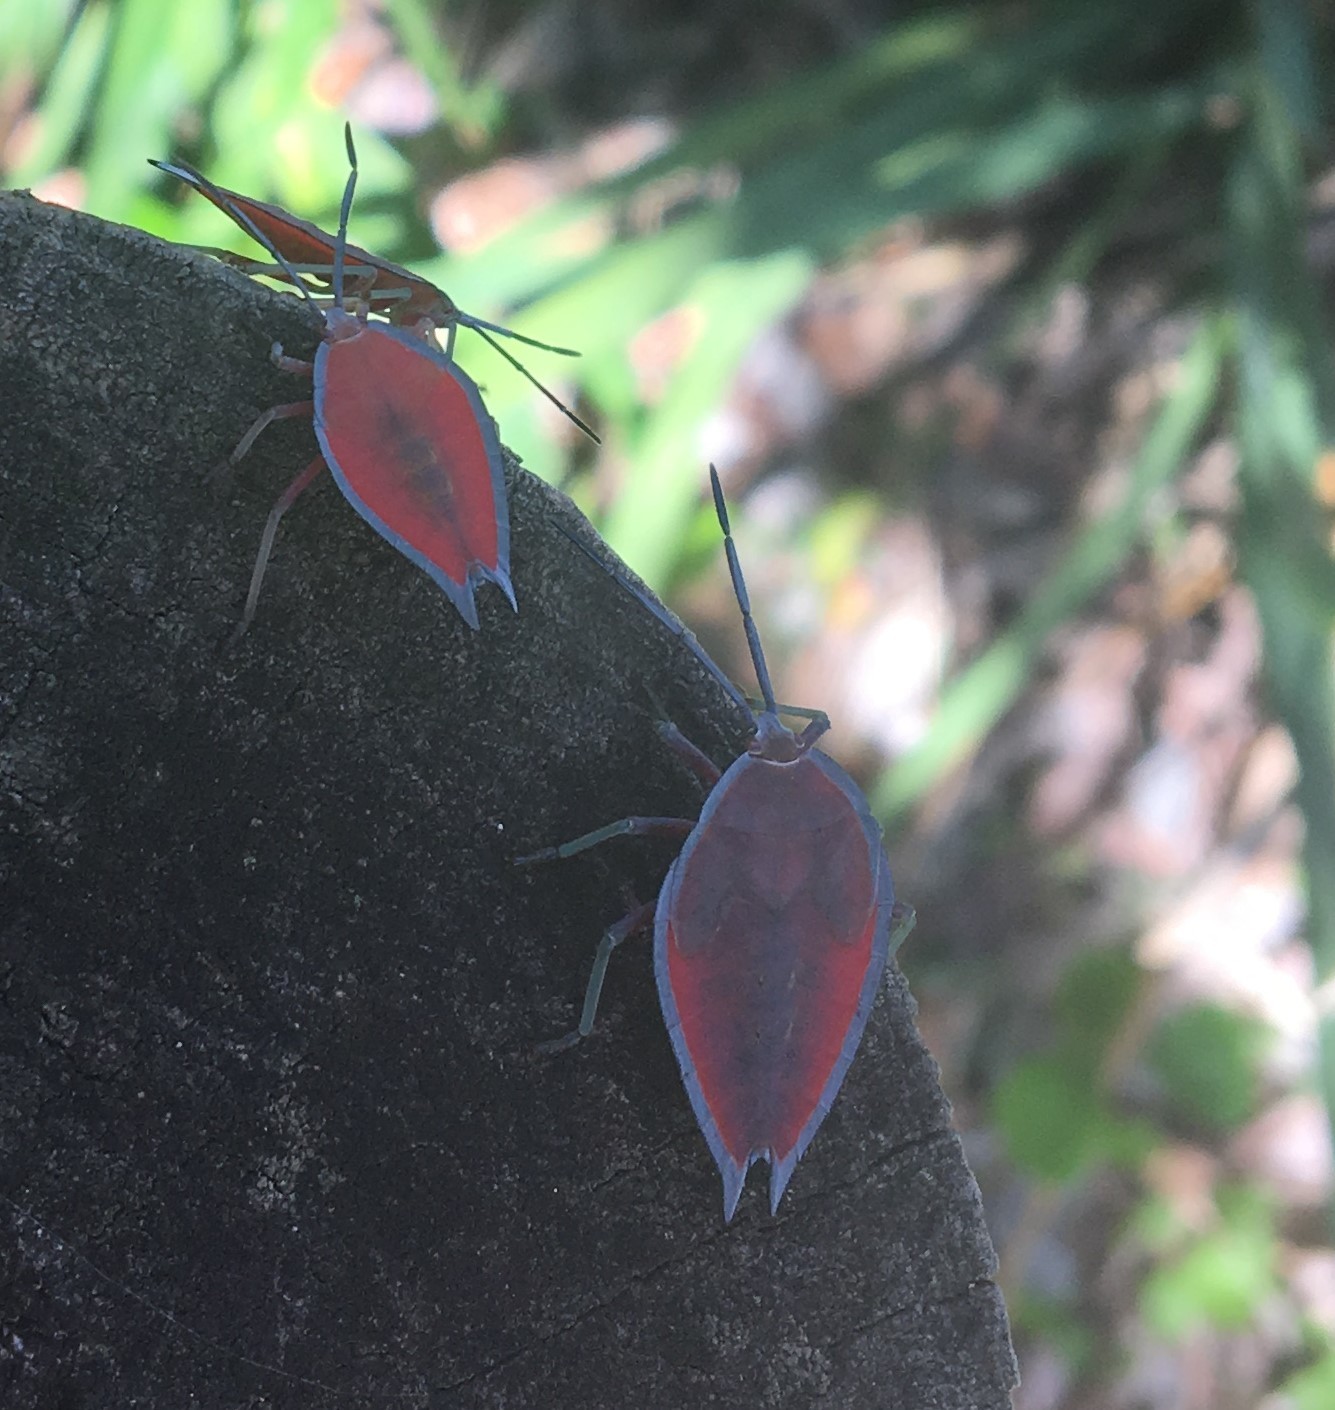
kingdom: Animalia
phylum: Arthropoda
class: Insecta
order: Hemiptera
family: Tessaratomidae
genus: Lyramorpha
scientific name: Lyramorpha rosea
